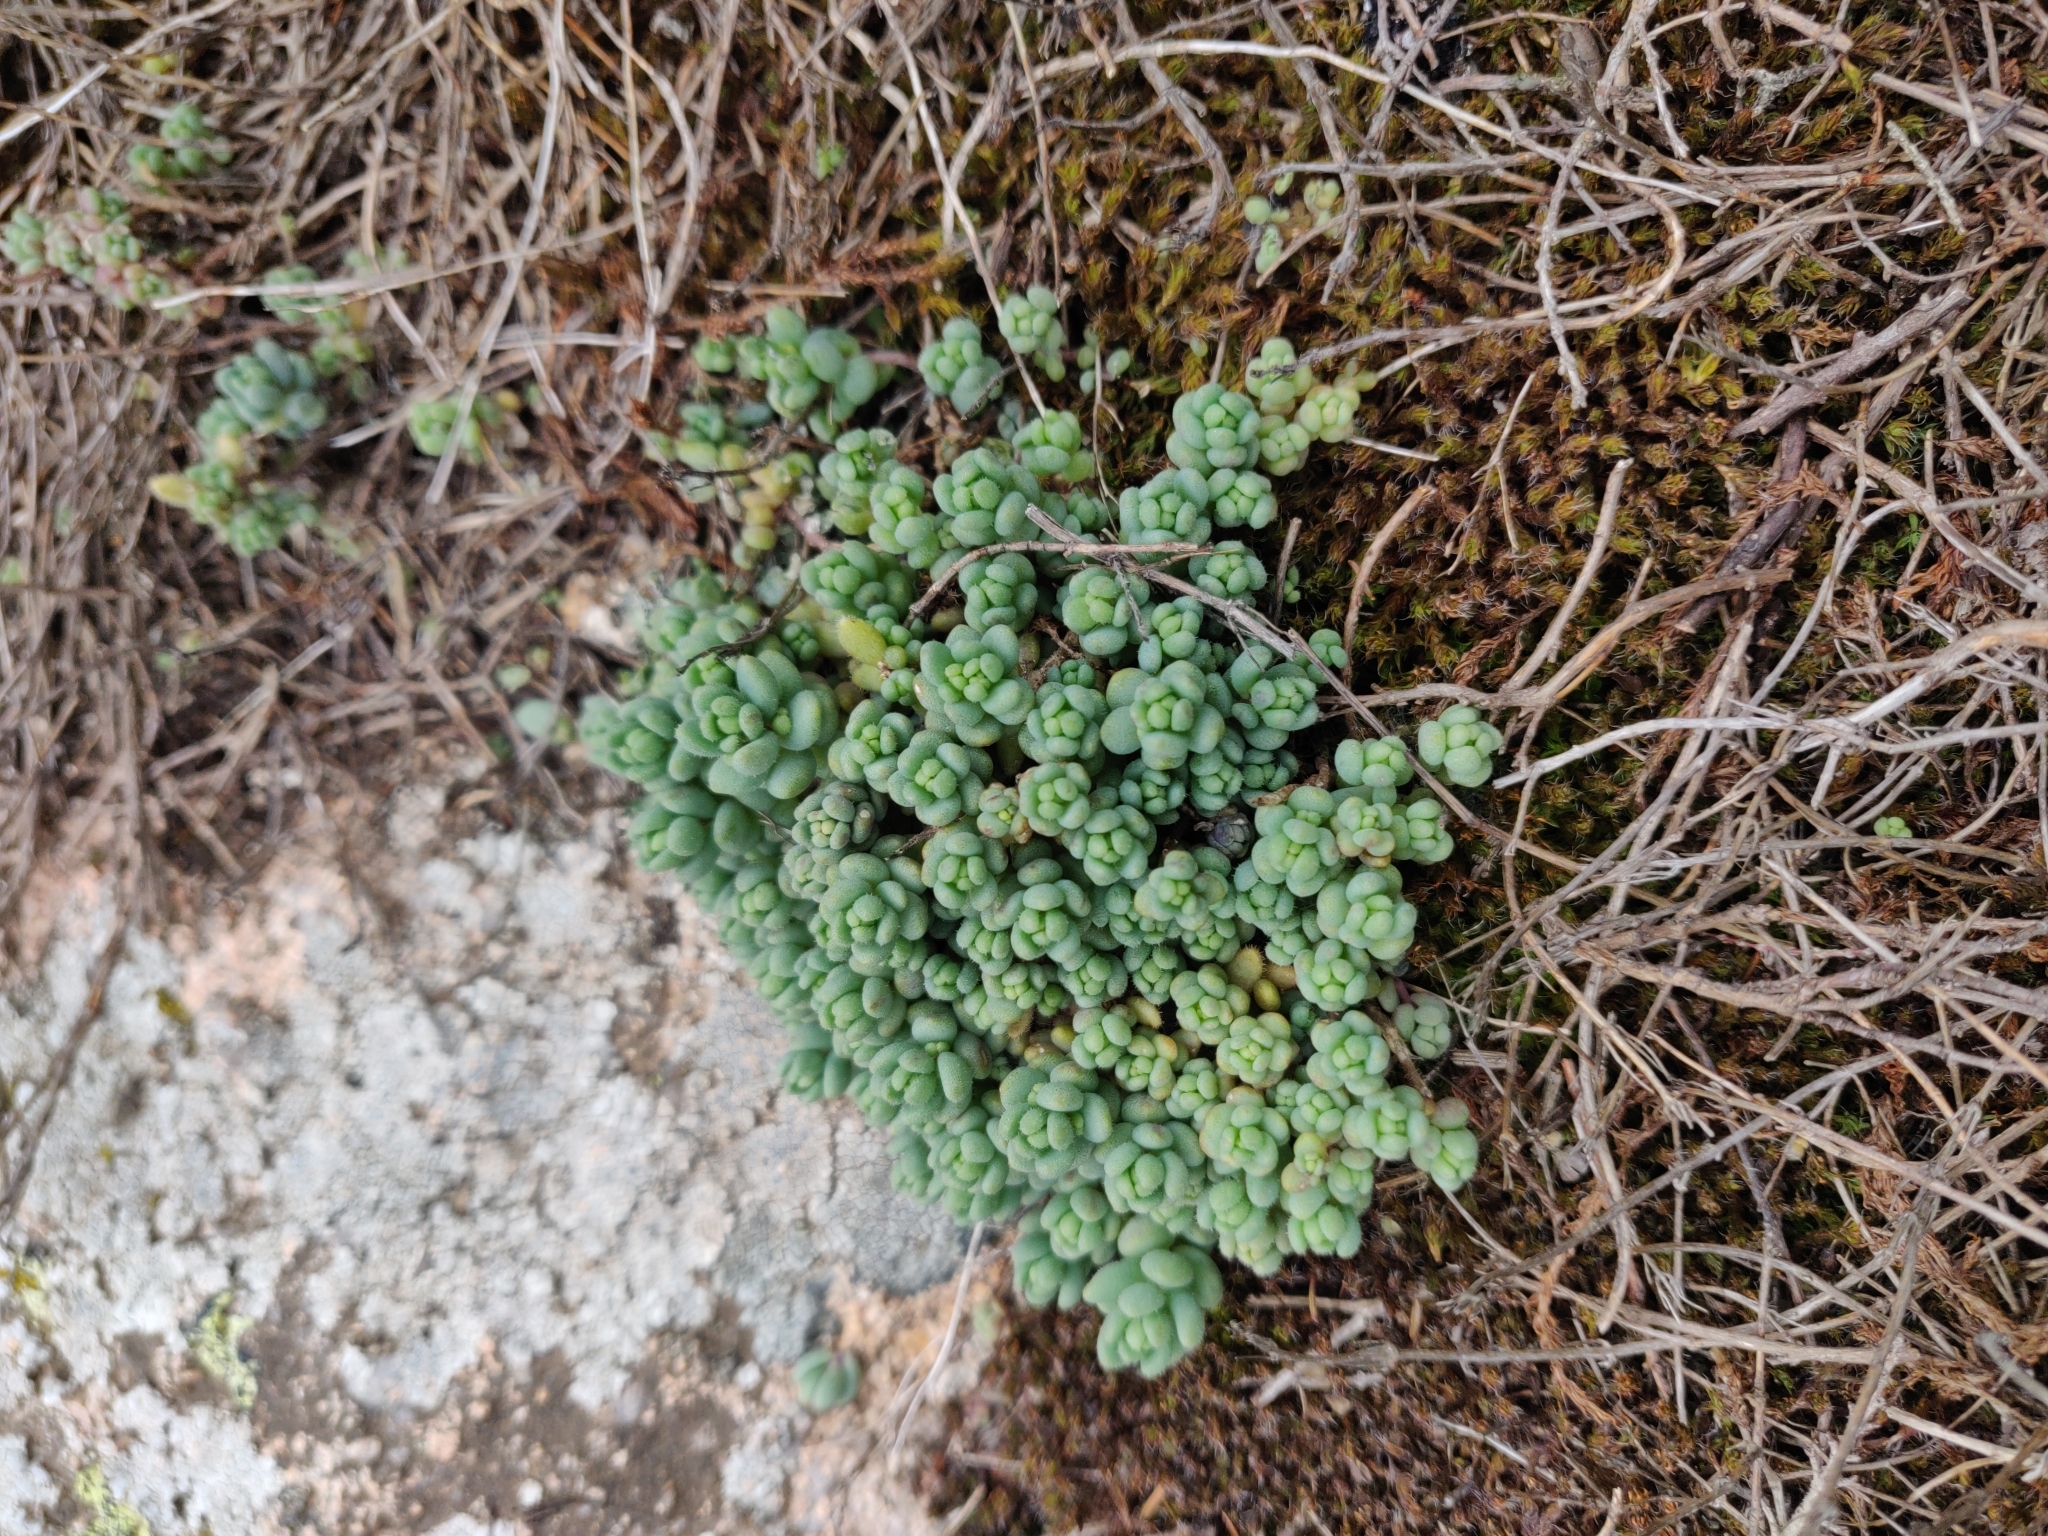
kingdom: Plantae
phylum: Tracheophyta
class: Magnoliopsida
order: Saxifragales
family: Crassulaceae
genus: Sedum
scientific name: Sedum dasyphyllum
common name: Thick-leaf stonecrop
